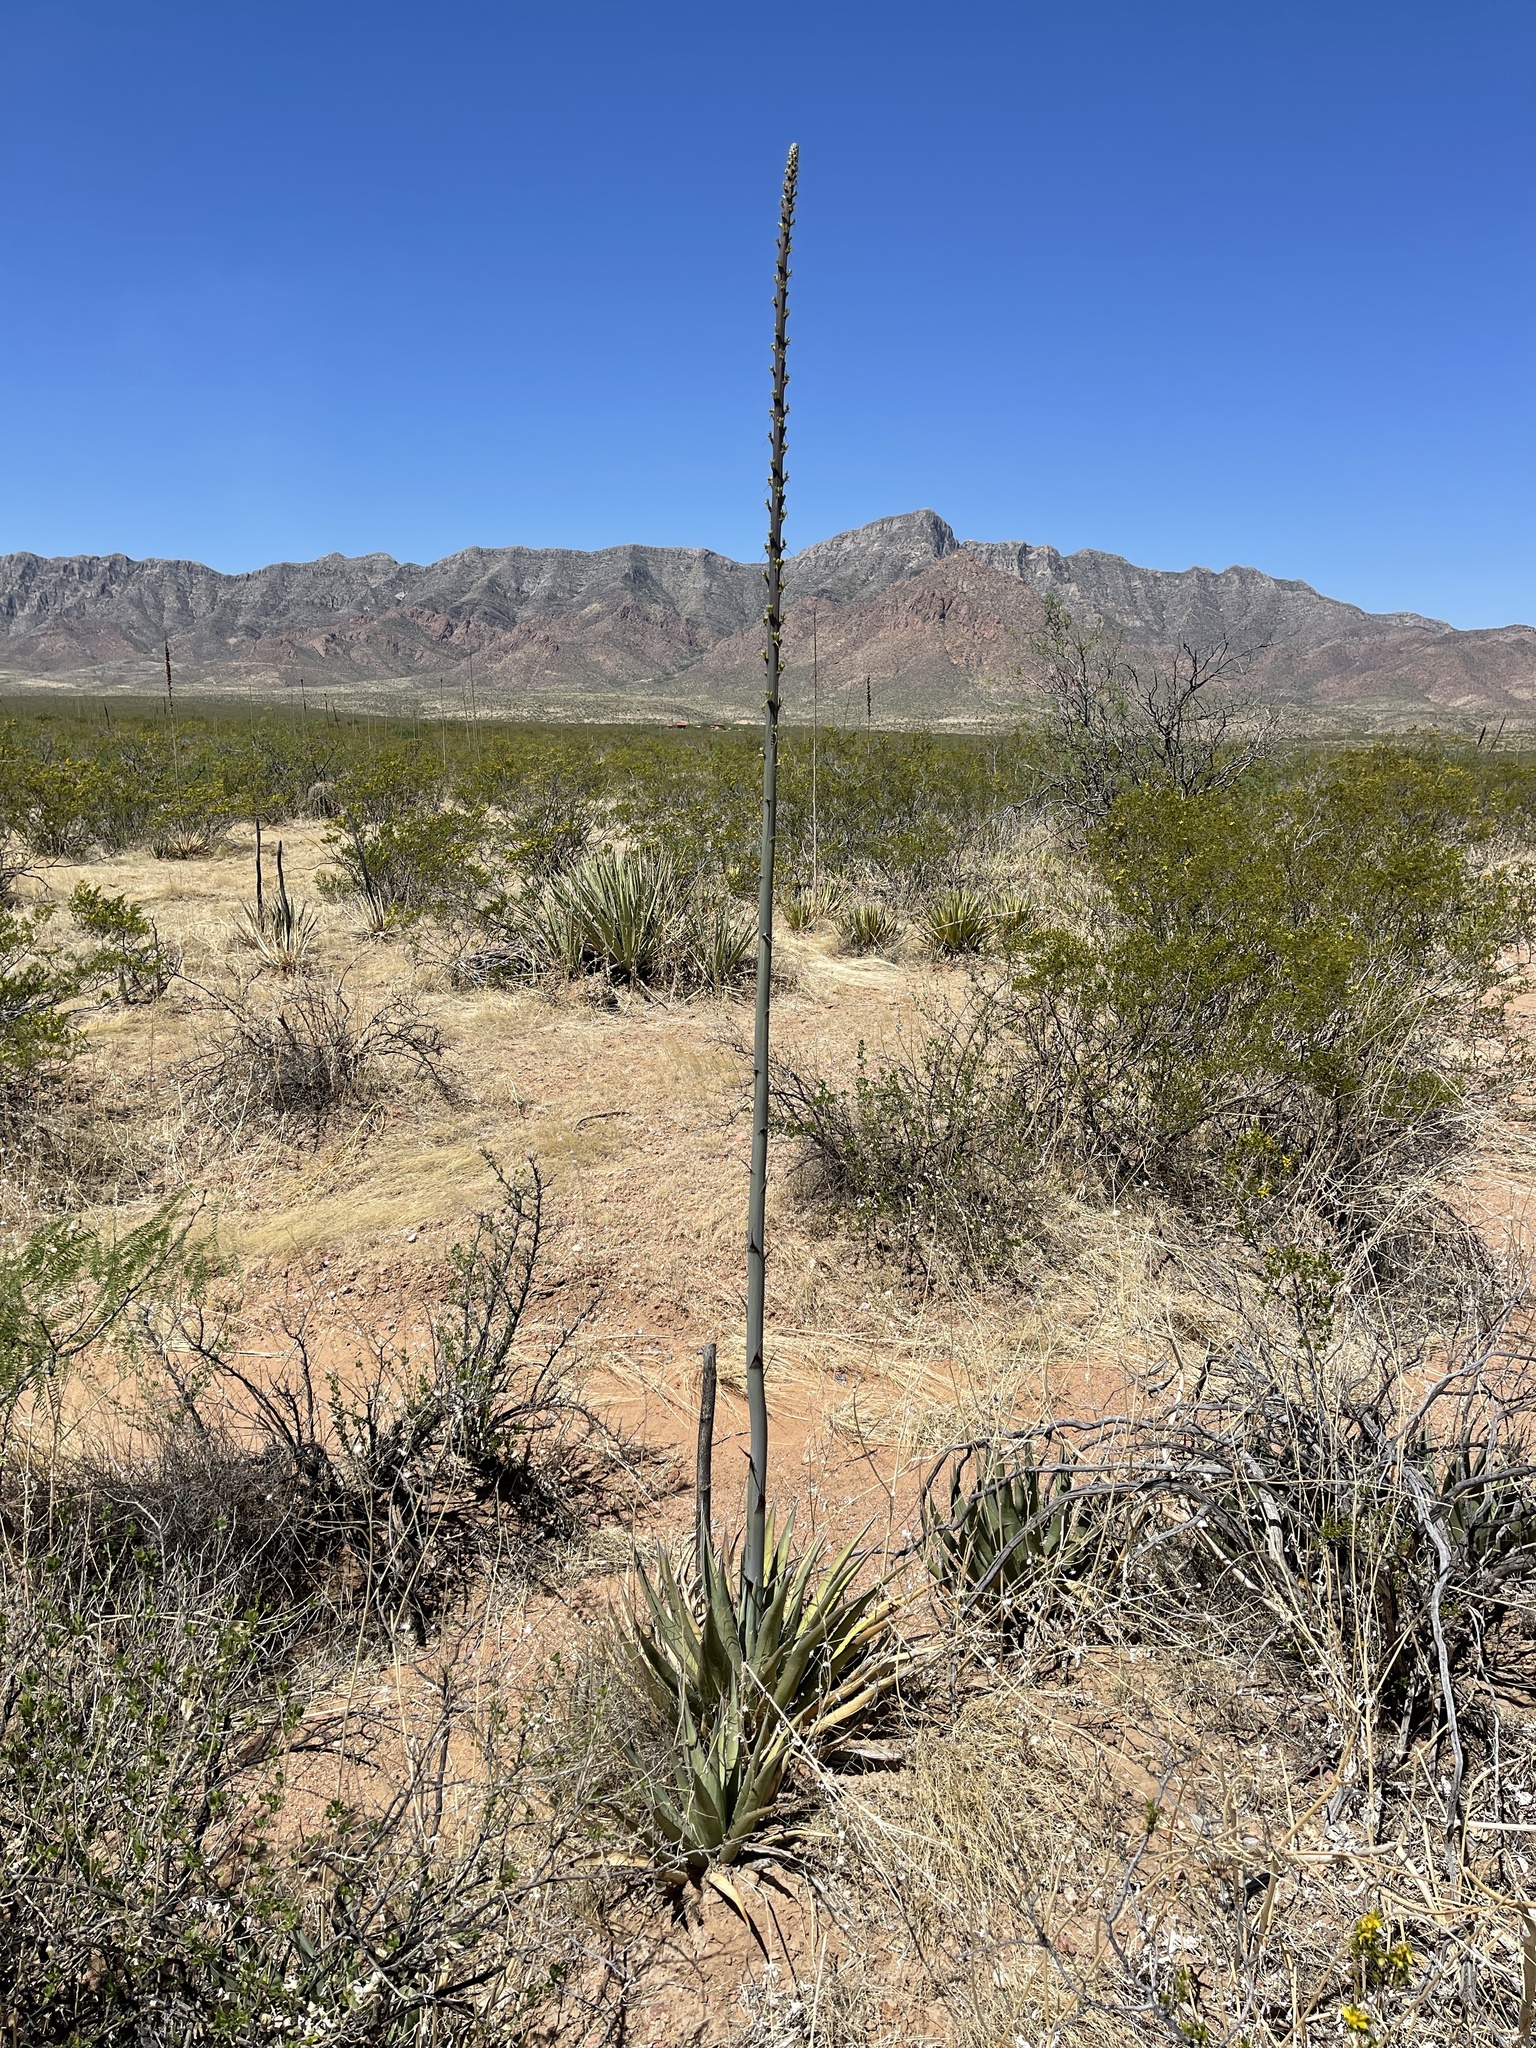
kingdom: Plantae
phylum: Tracheophyta
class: Liliopsida
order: Asparagales
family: Asparagaceae
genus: Agave
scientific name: Agave lechuguilla
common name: Lecheguilla agave
